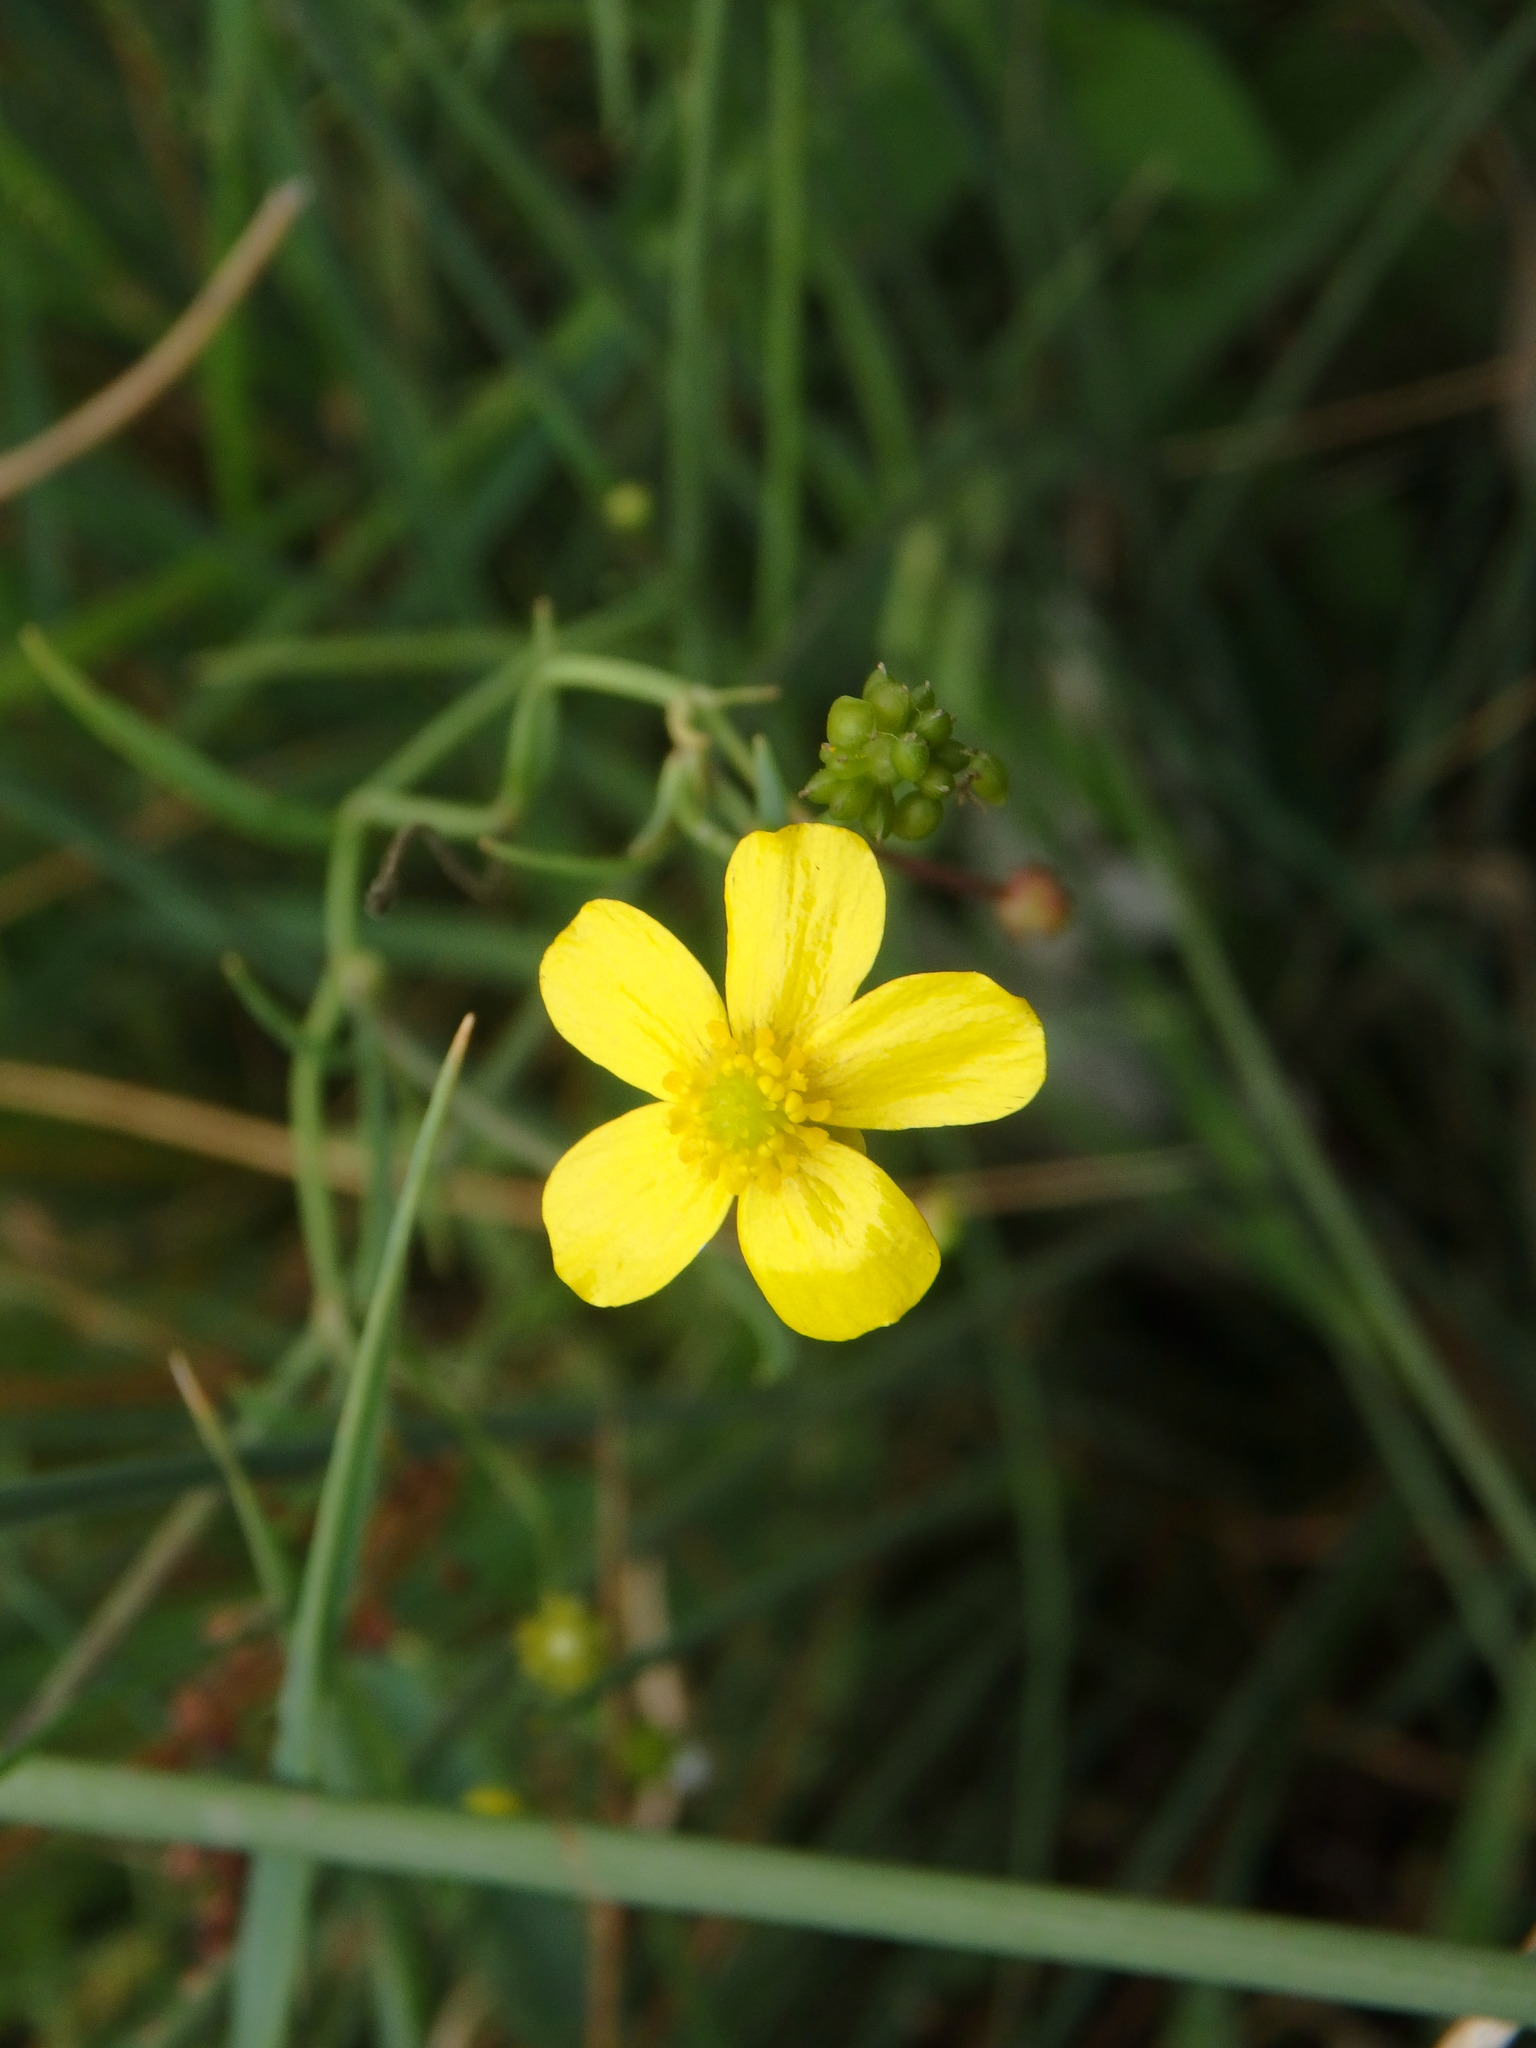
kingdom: Plantae
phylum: Tracheophyta
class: Magnoliopsida
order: Ranunculales
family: Ranunculaceae
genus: Ranunculus
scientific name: Ranunculus flammula
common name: Lesser spearwort
